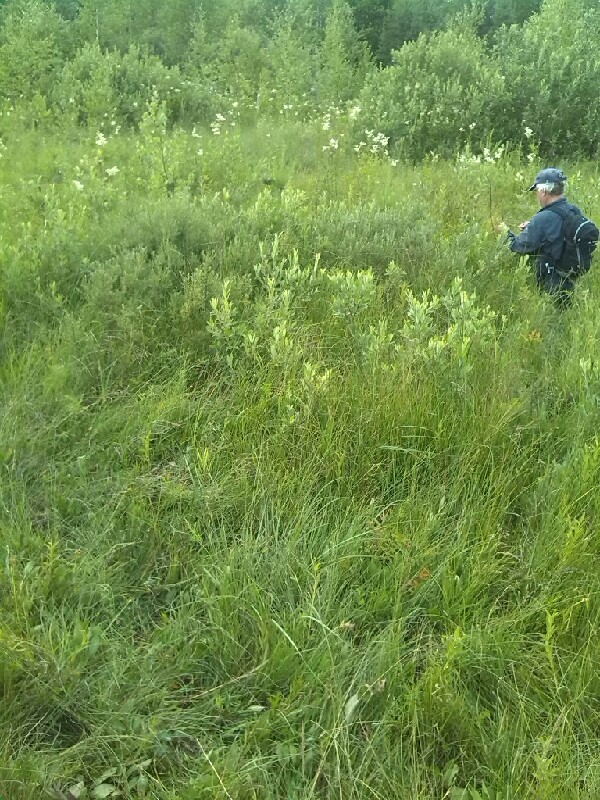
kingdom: Plantae
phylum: Tracheophyta
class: Liliopsida
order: Asparagales
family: Orchidaceae
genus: Dactylorhiza
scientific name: Dactylorhiza incarnata
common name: Early marsh-orchid
